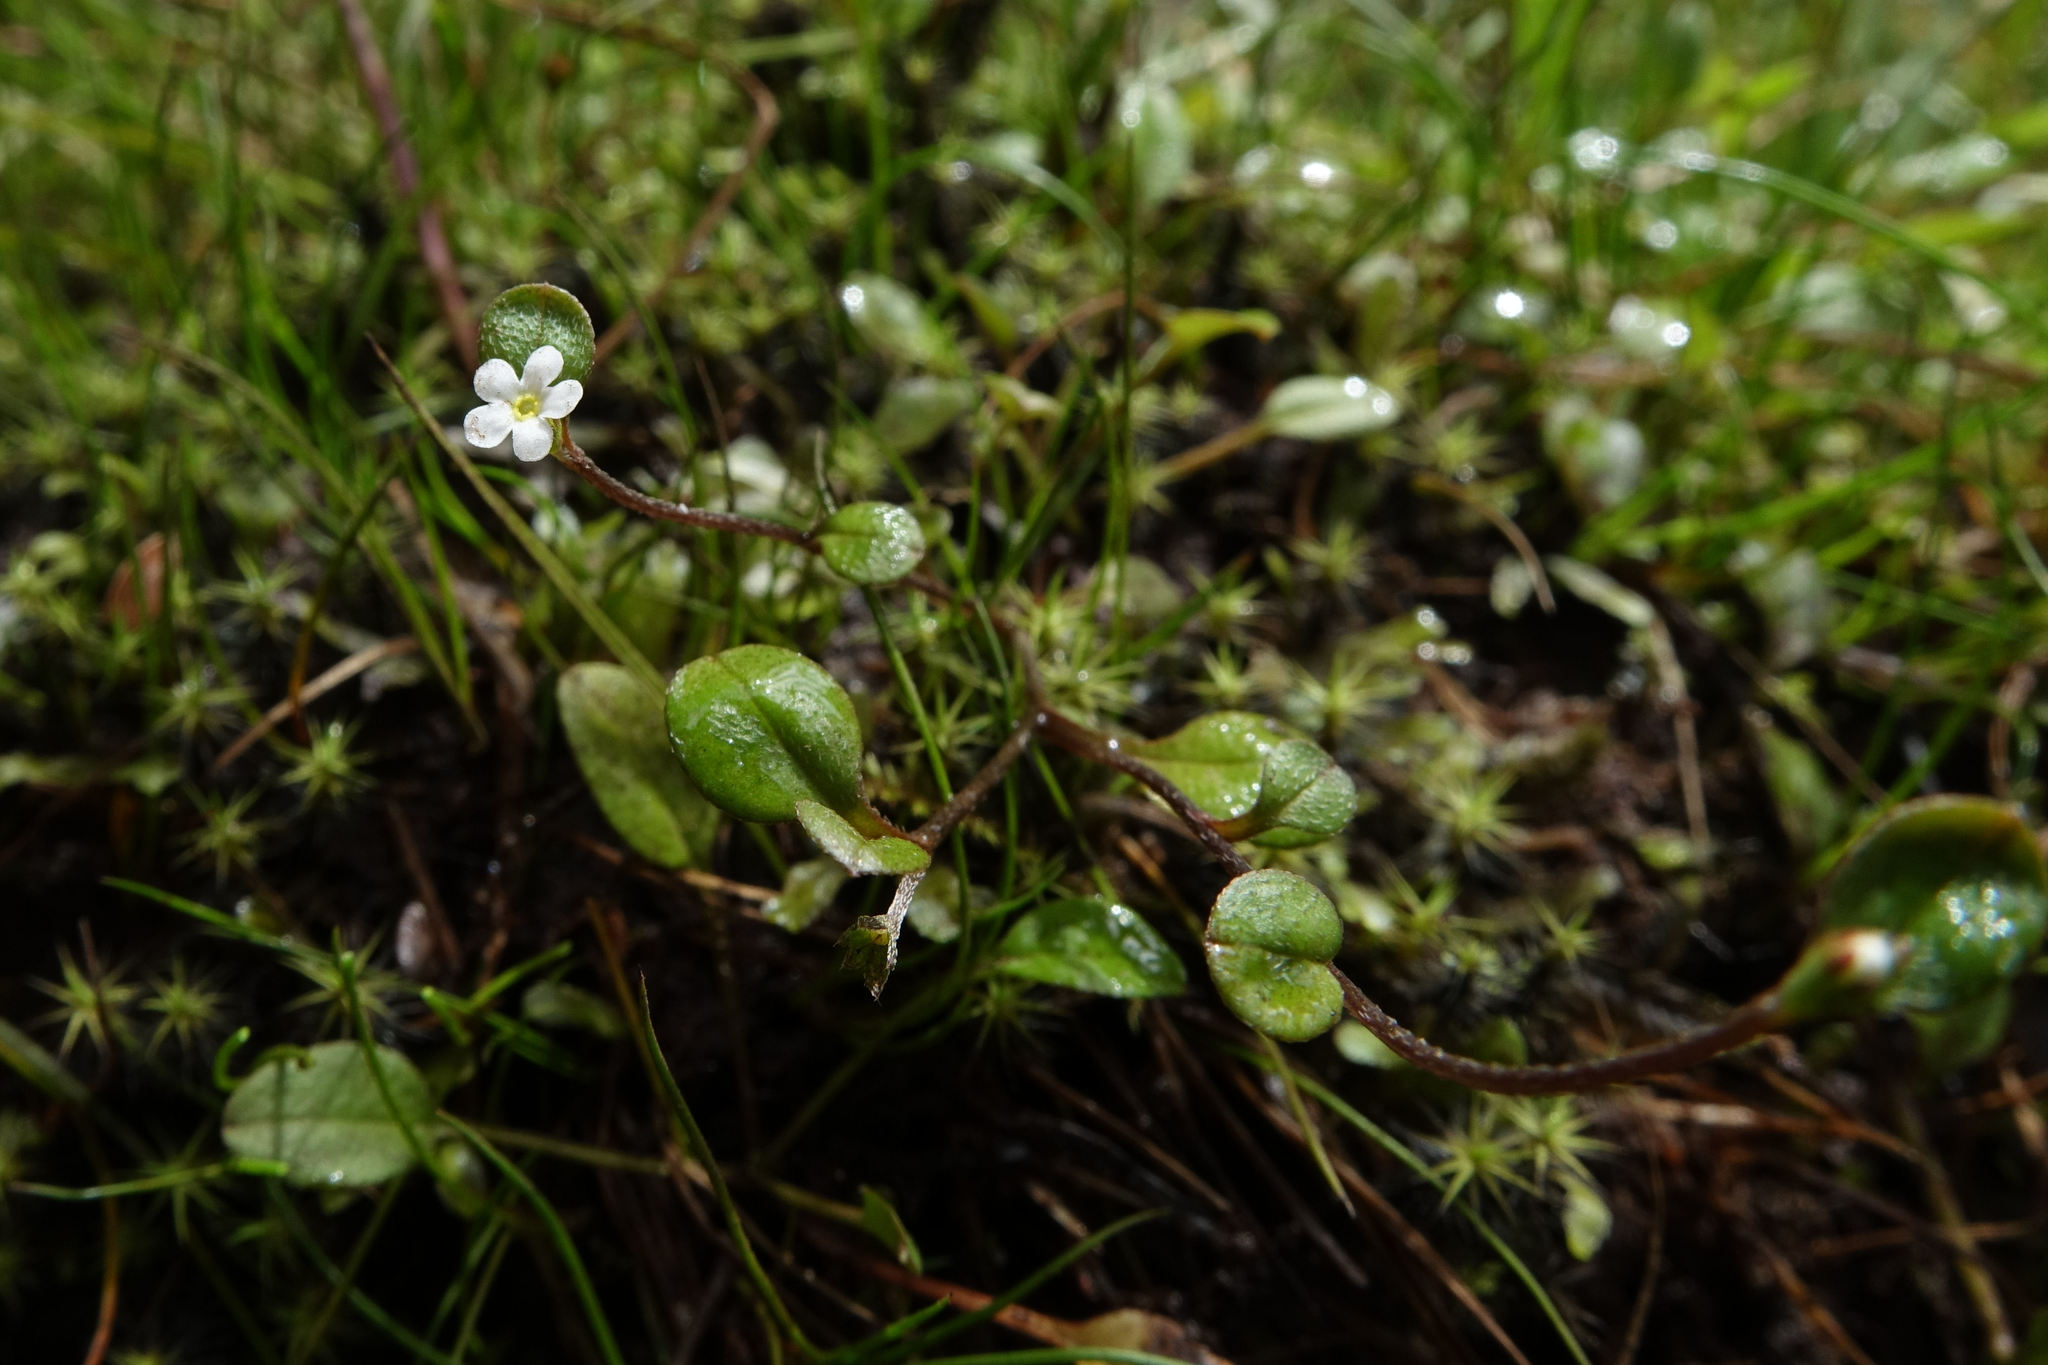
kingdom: Plantae
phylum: Tracheophyta
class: Magnoliopsida
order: Boraginales
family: Boraginaceae
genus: Myosotis
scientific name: Myosotis tenericaulis
